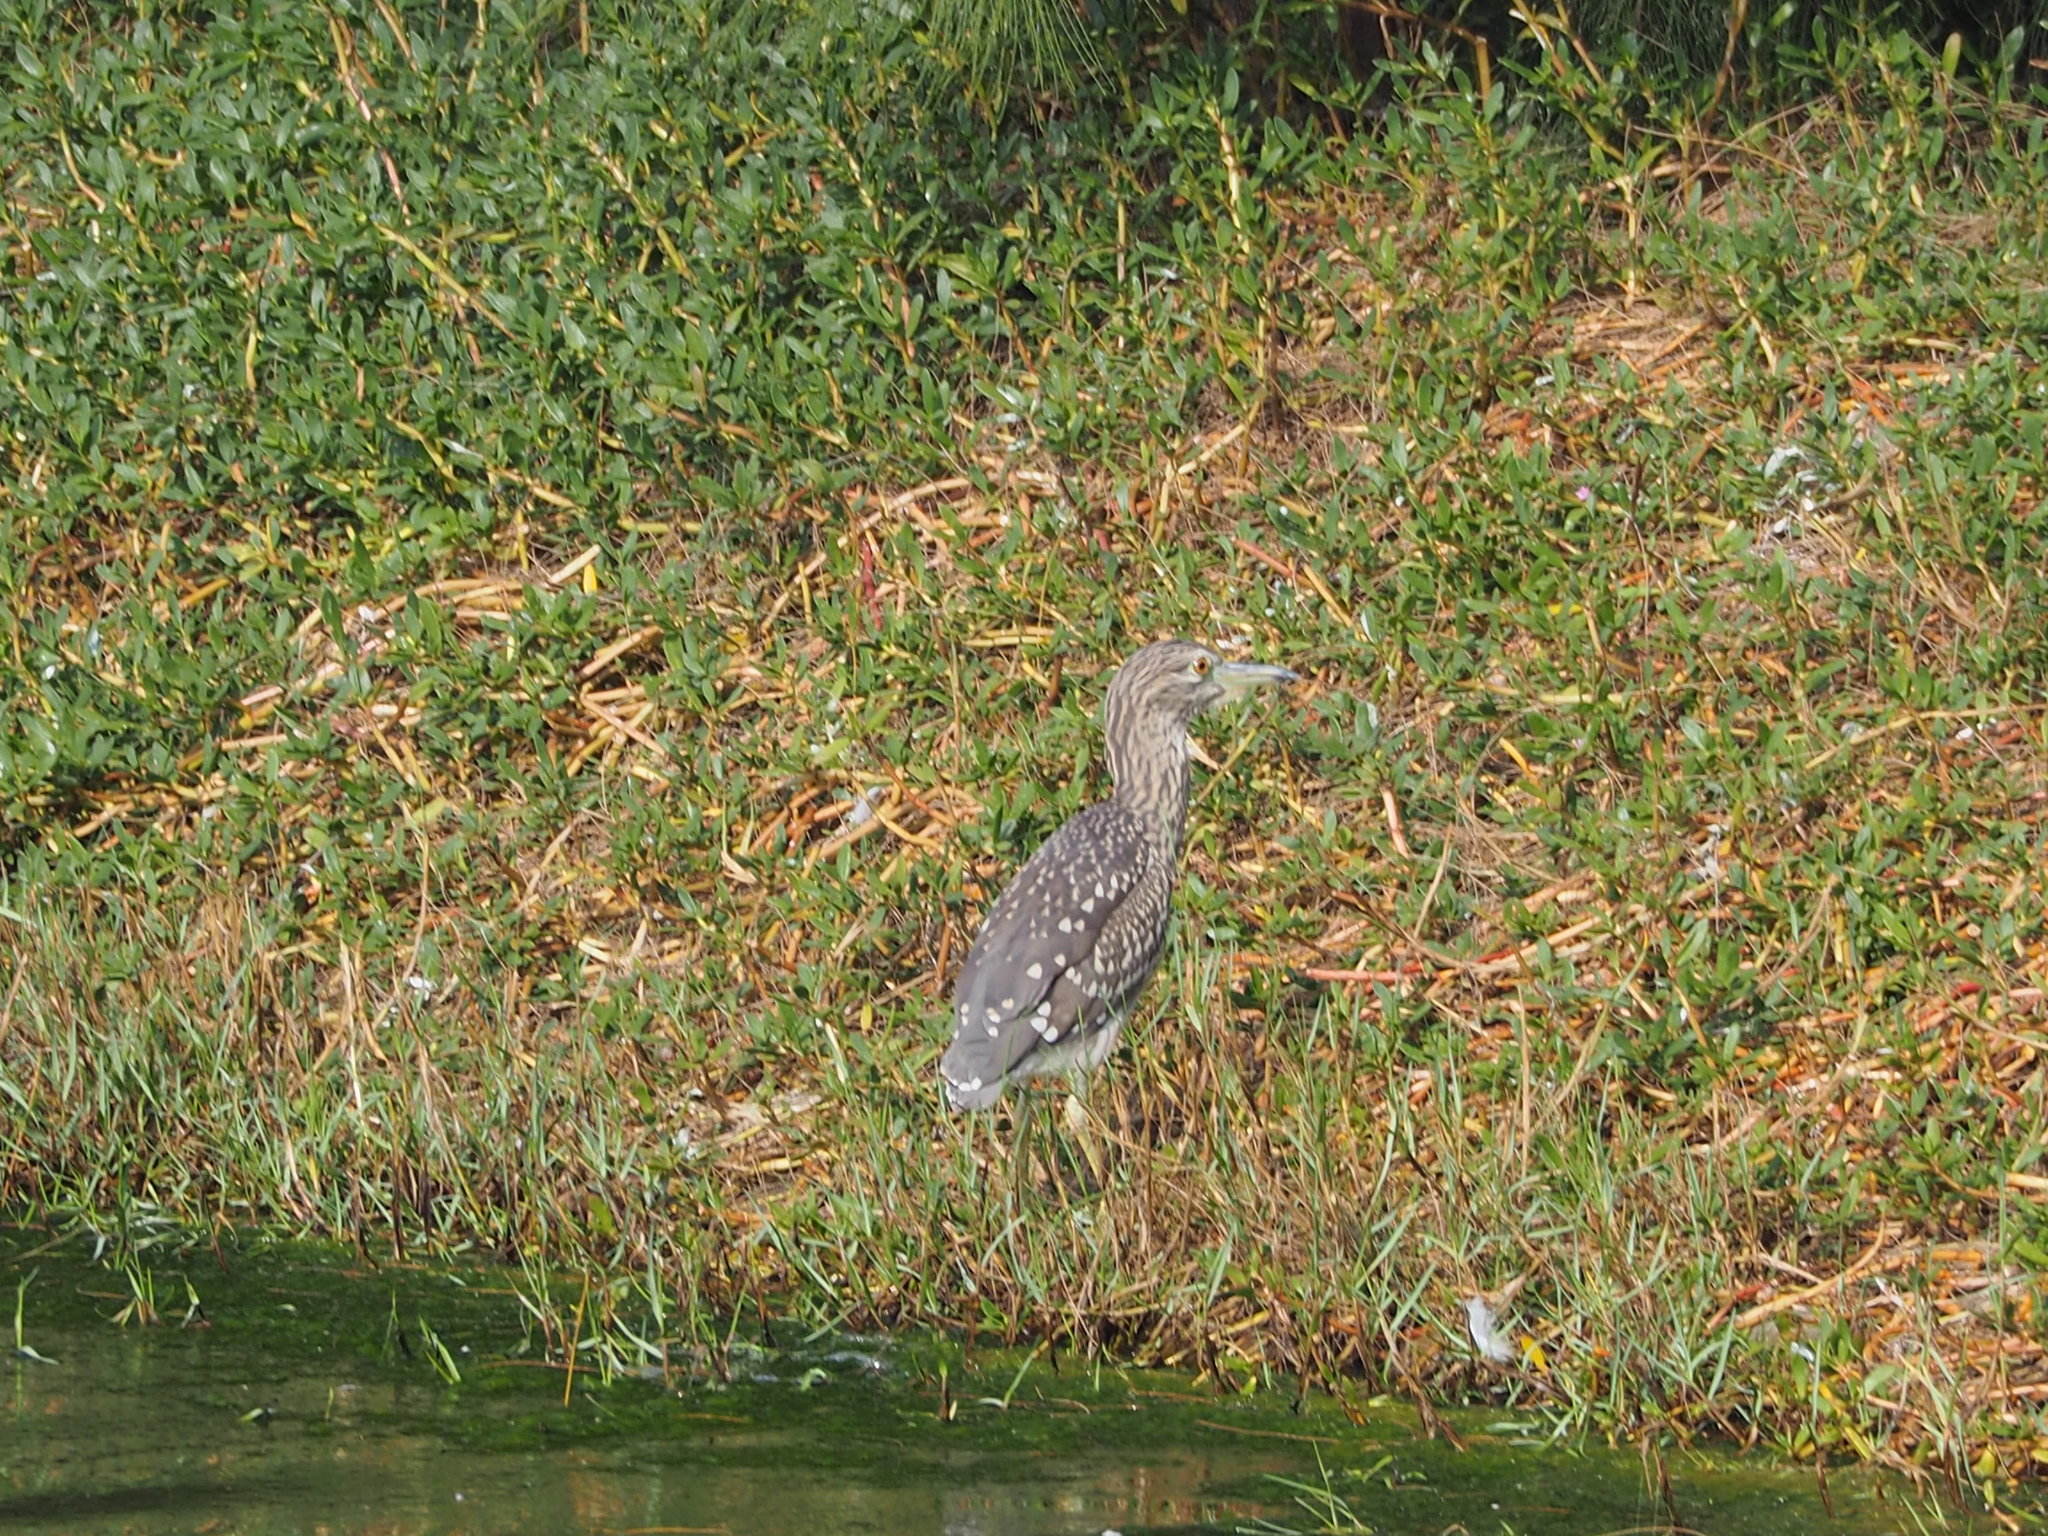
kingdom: Animalia
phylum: Chordata
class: Aves
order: Pelecaniformes
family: Ardeidae
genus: Nycticorax
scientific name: Nycticorax nycticorax
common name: Black-crowned night heron
